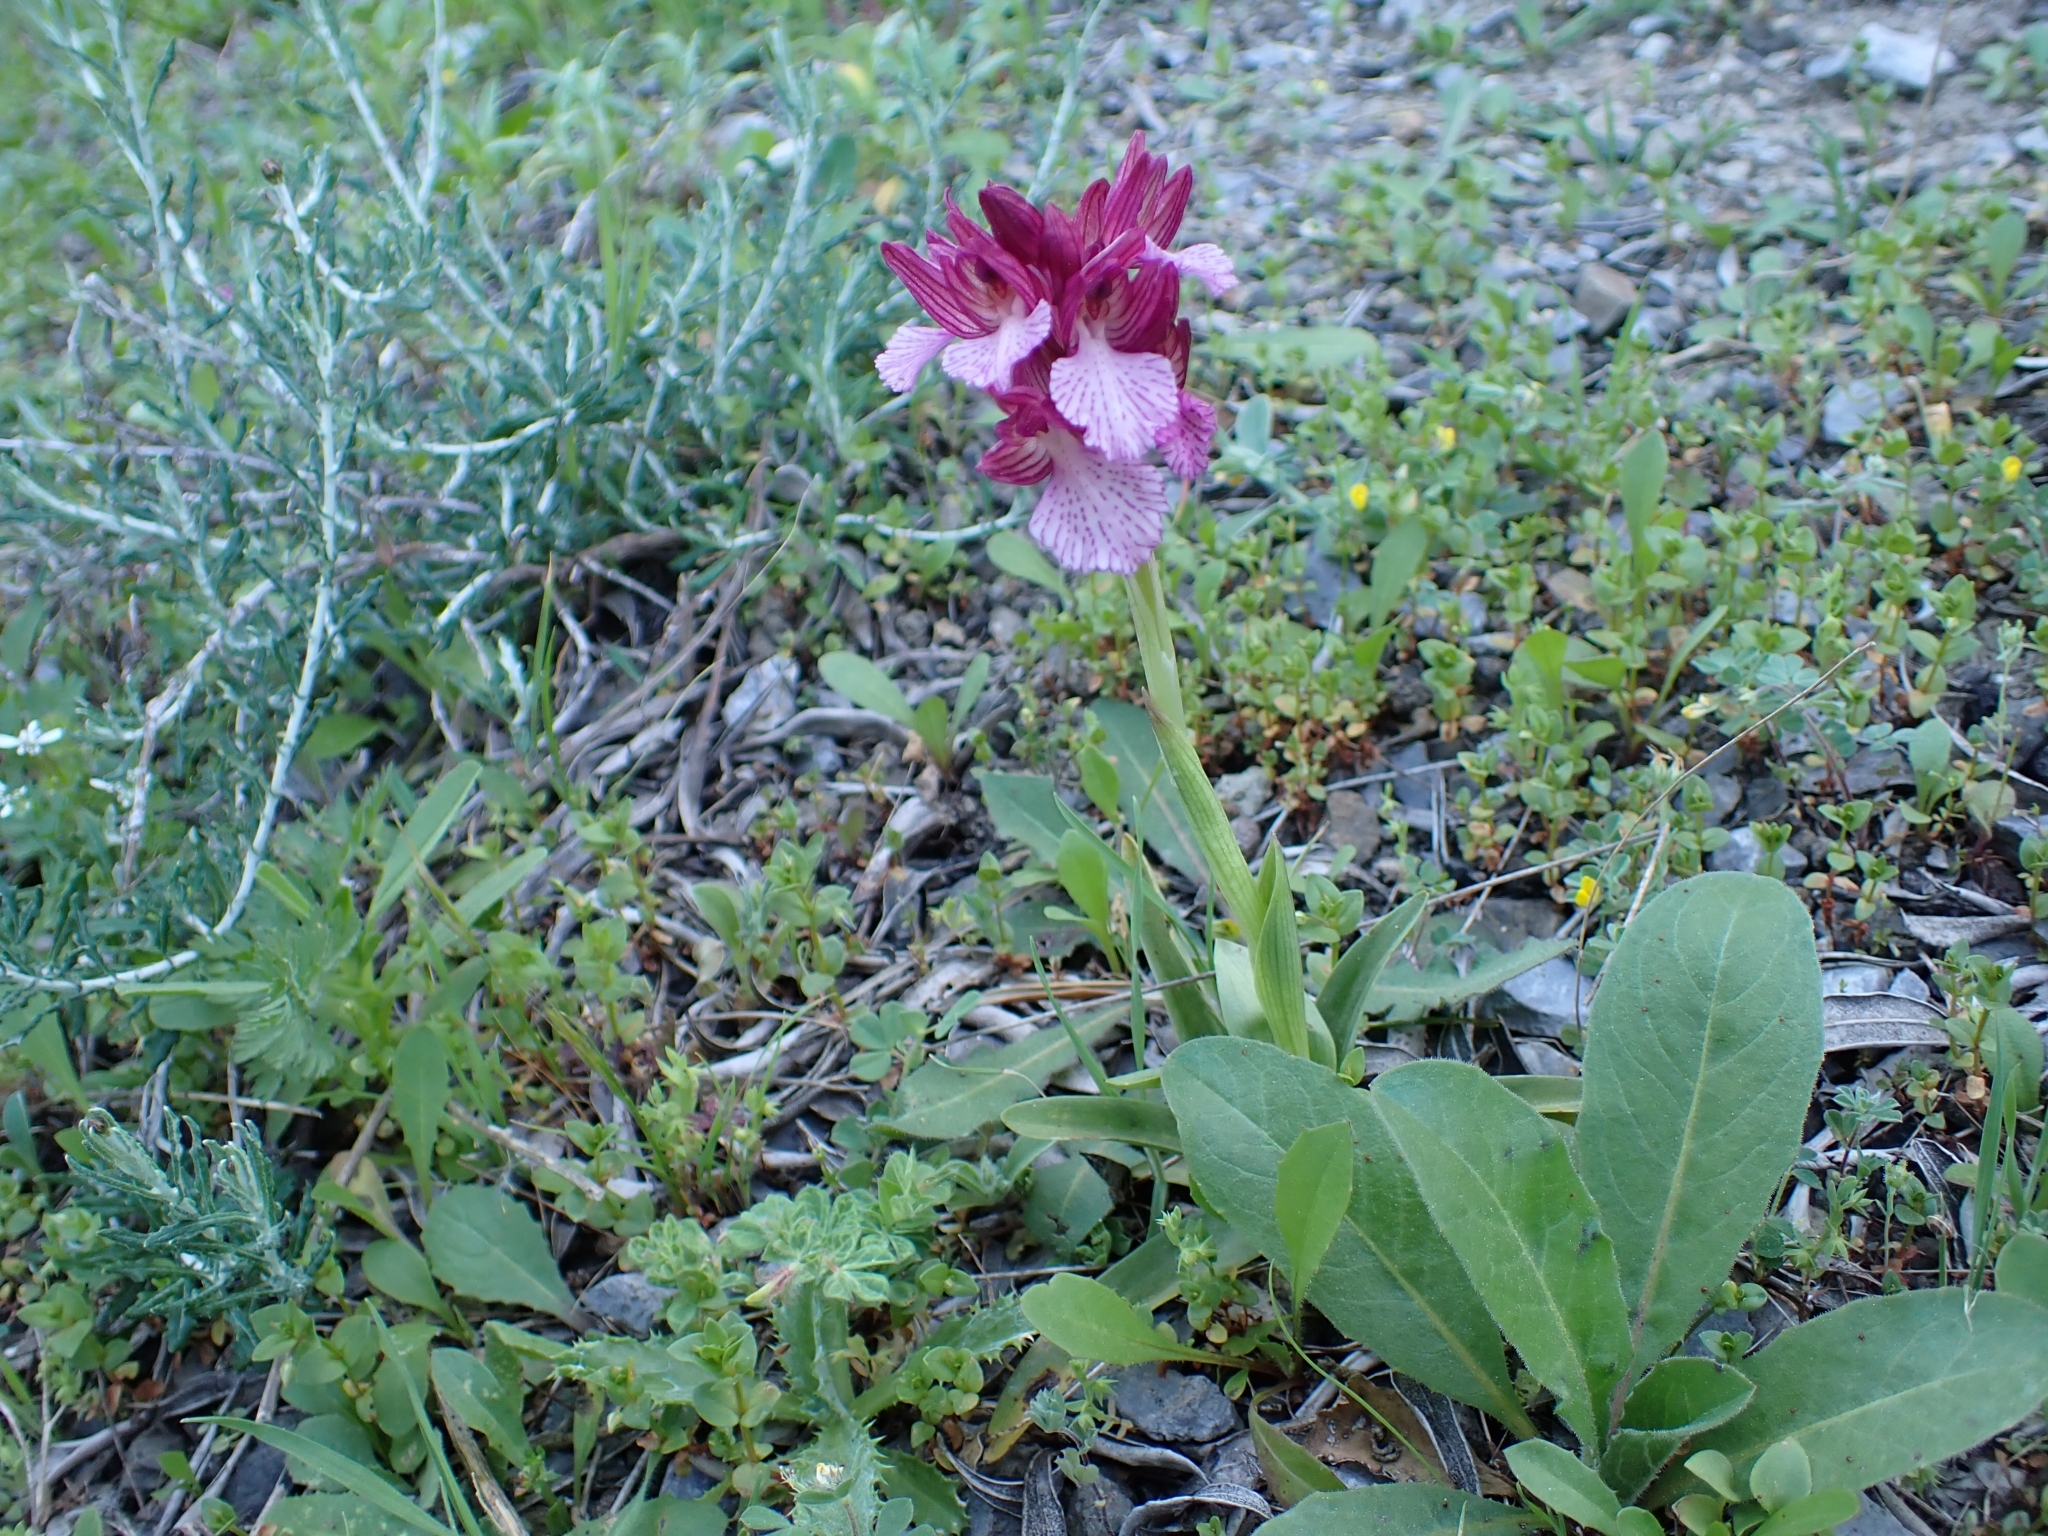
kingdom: Plantae
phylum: Tracheophyta
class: Liliopsida
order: Asparagales
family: Orchidaceae
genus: Anacamptis
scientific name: Anacamptis papilionacea
